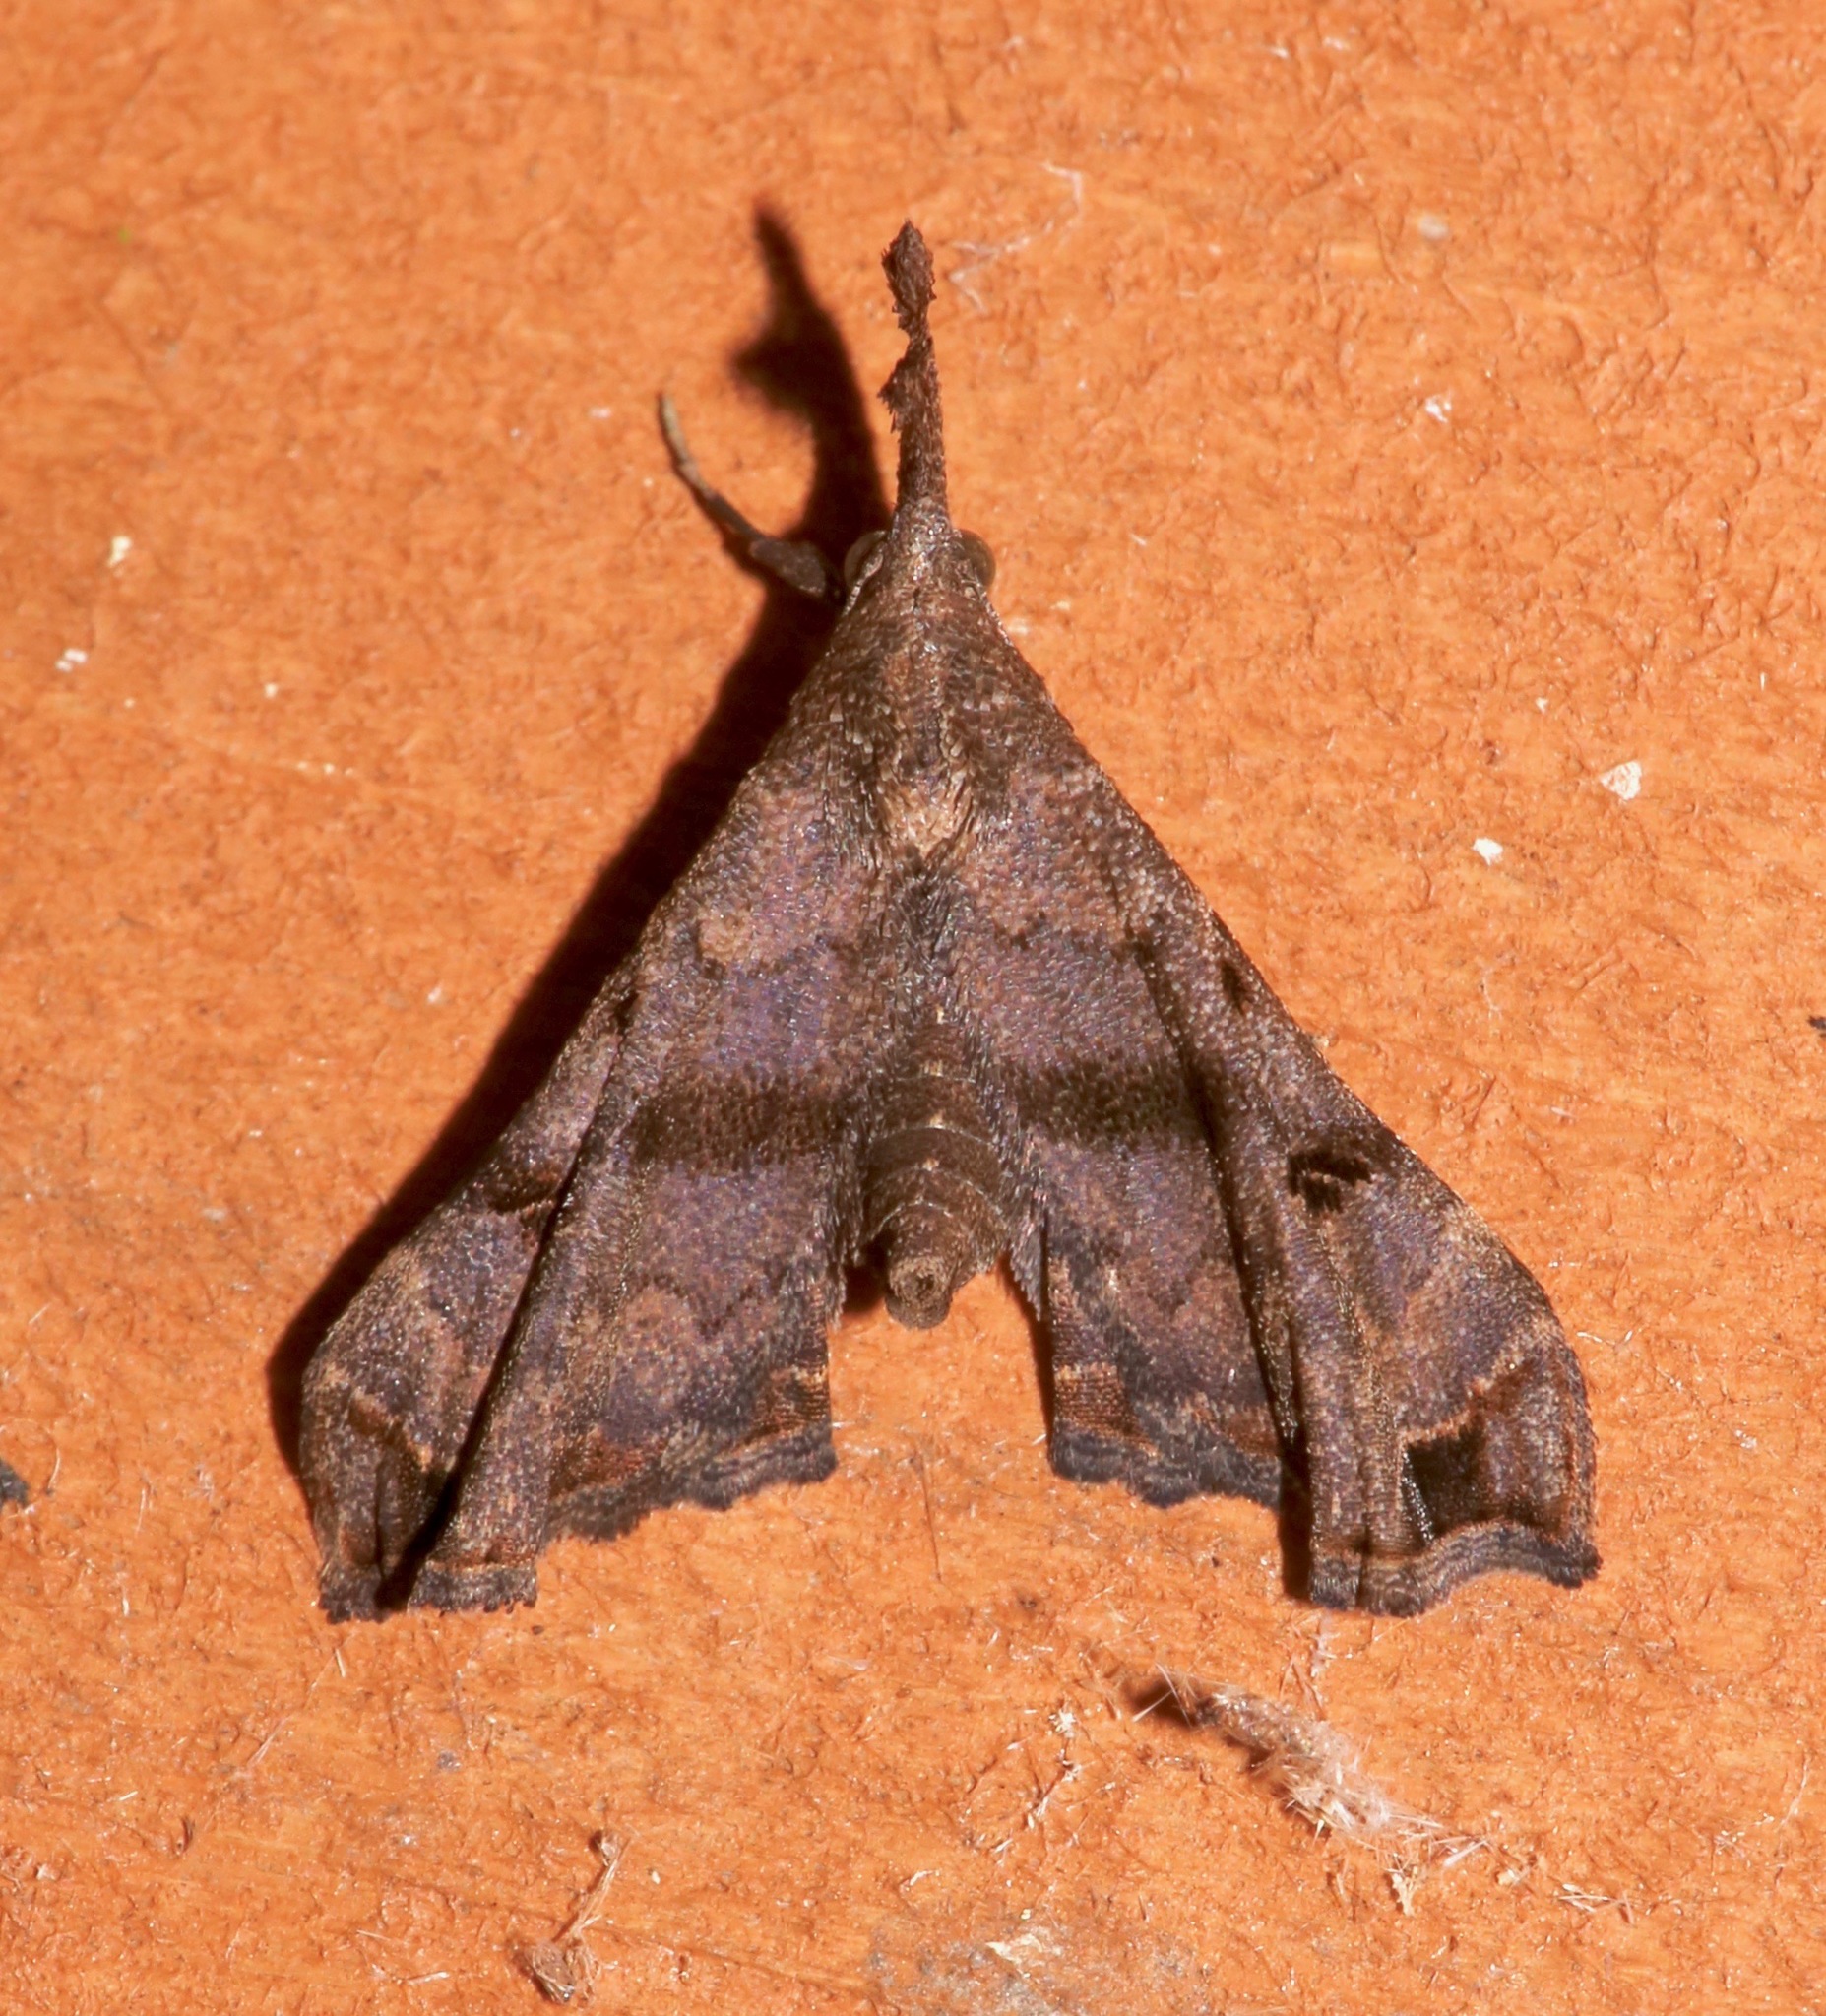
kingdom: Animalia
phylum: Arthropoda
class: Insecta
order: Lepidoptera
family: Erebidae
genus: Palthis
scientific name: Palthis asopialis
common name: Faint-spotted palthis moth
